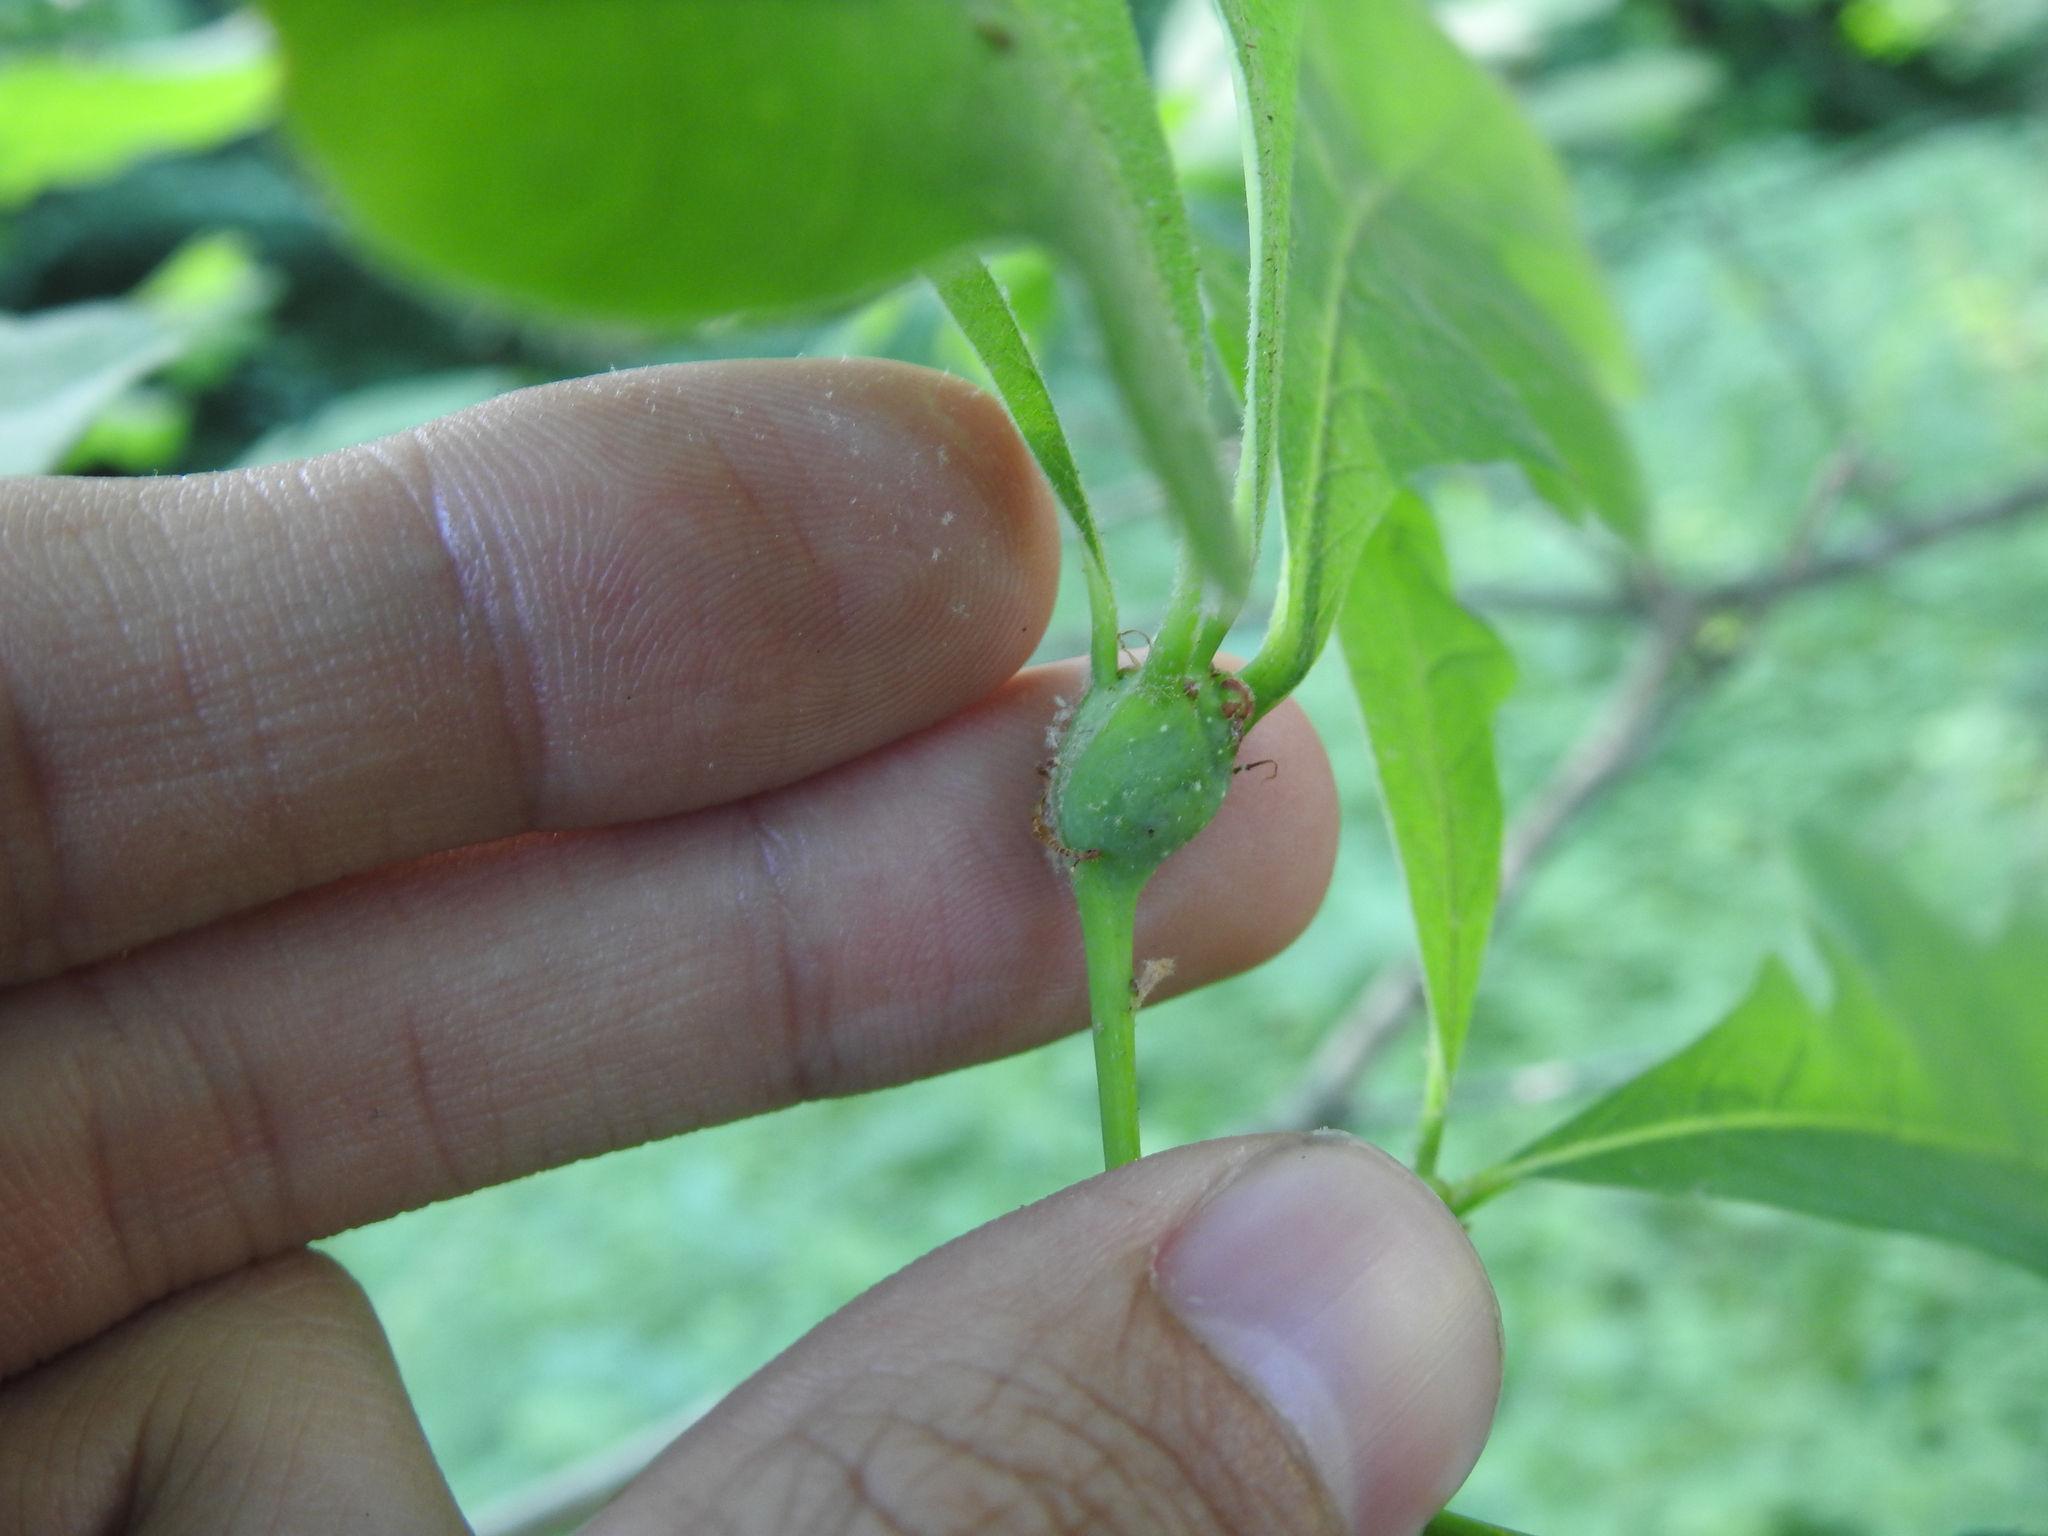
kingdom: Animalia
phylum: Arthropoda
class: Insecta
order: Hymenoptera
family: Cynipidae
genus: Callirhytis
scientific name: Callirhytis clavula
